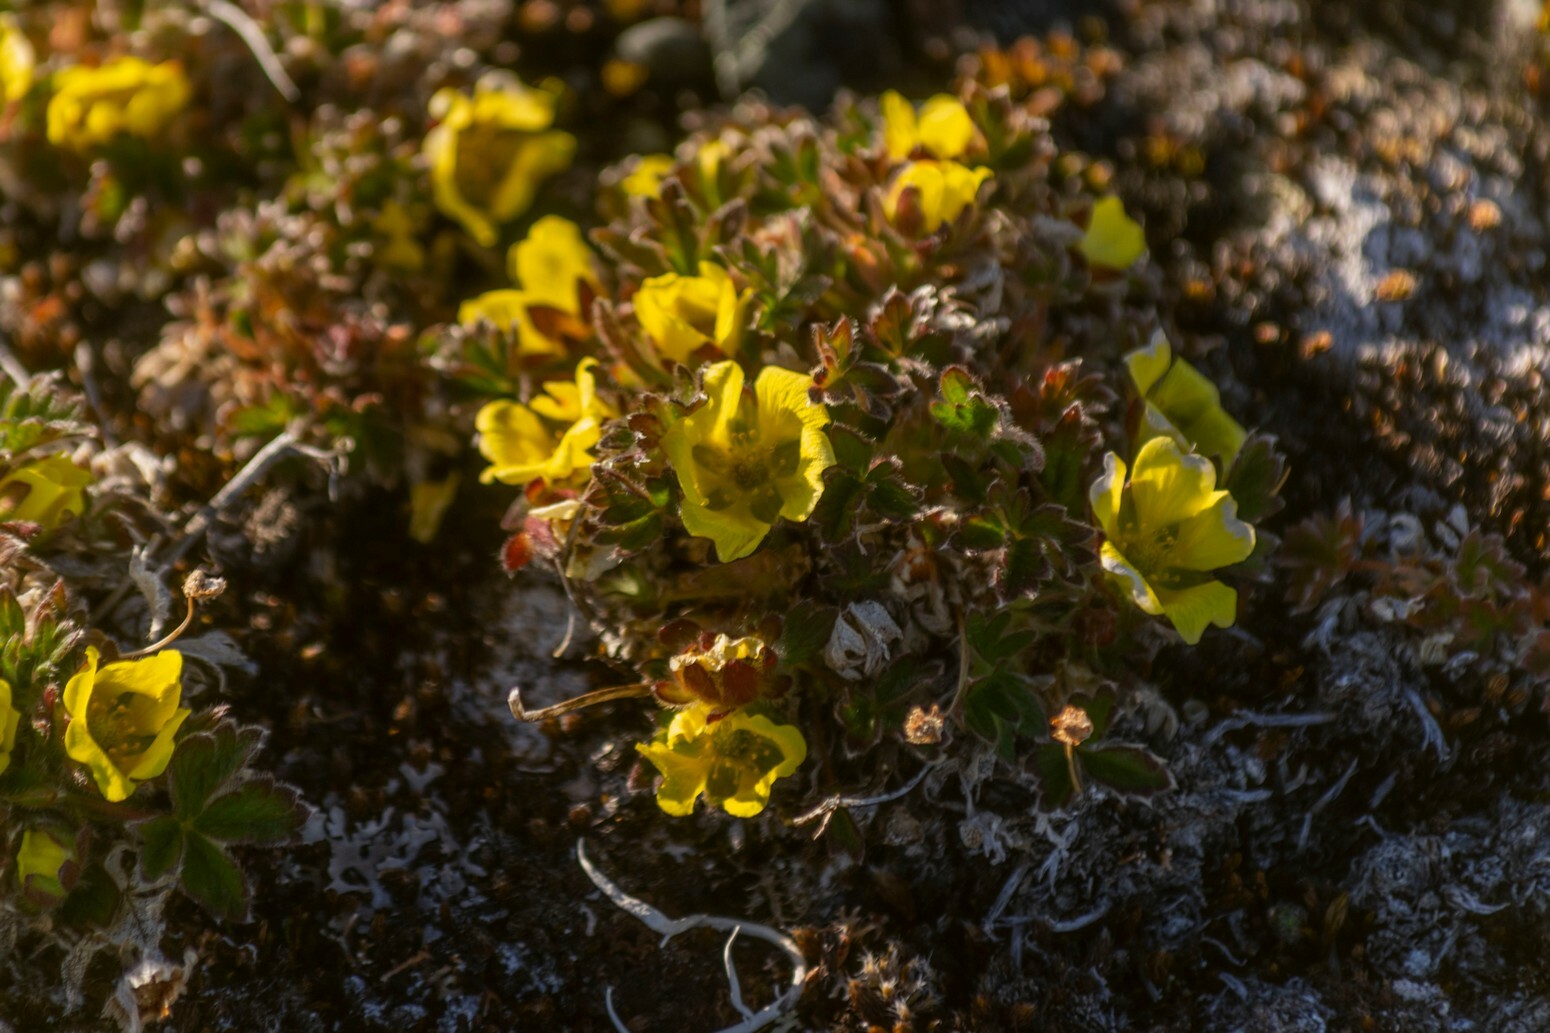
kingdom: Plantae
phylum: Tracheophyta
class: Magnoliopsida
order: Rosales
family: Rosaceae
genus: Potentilla
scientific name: Potentilla hyparctica
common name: Arctic cinquefoil
